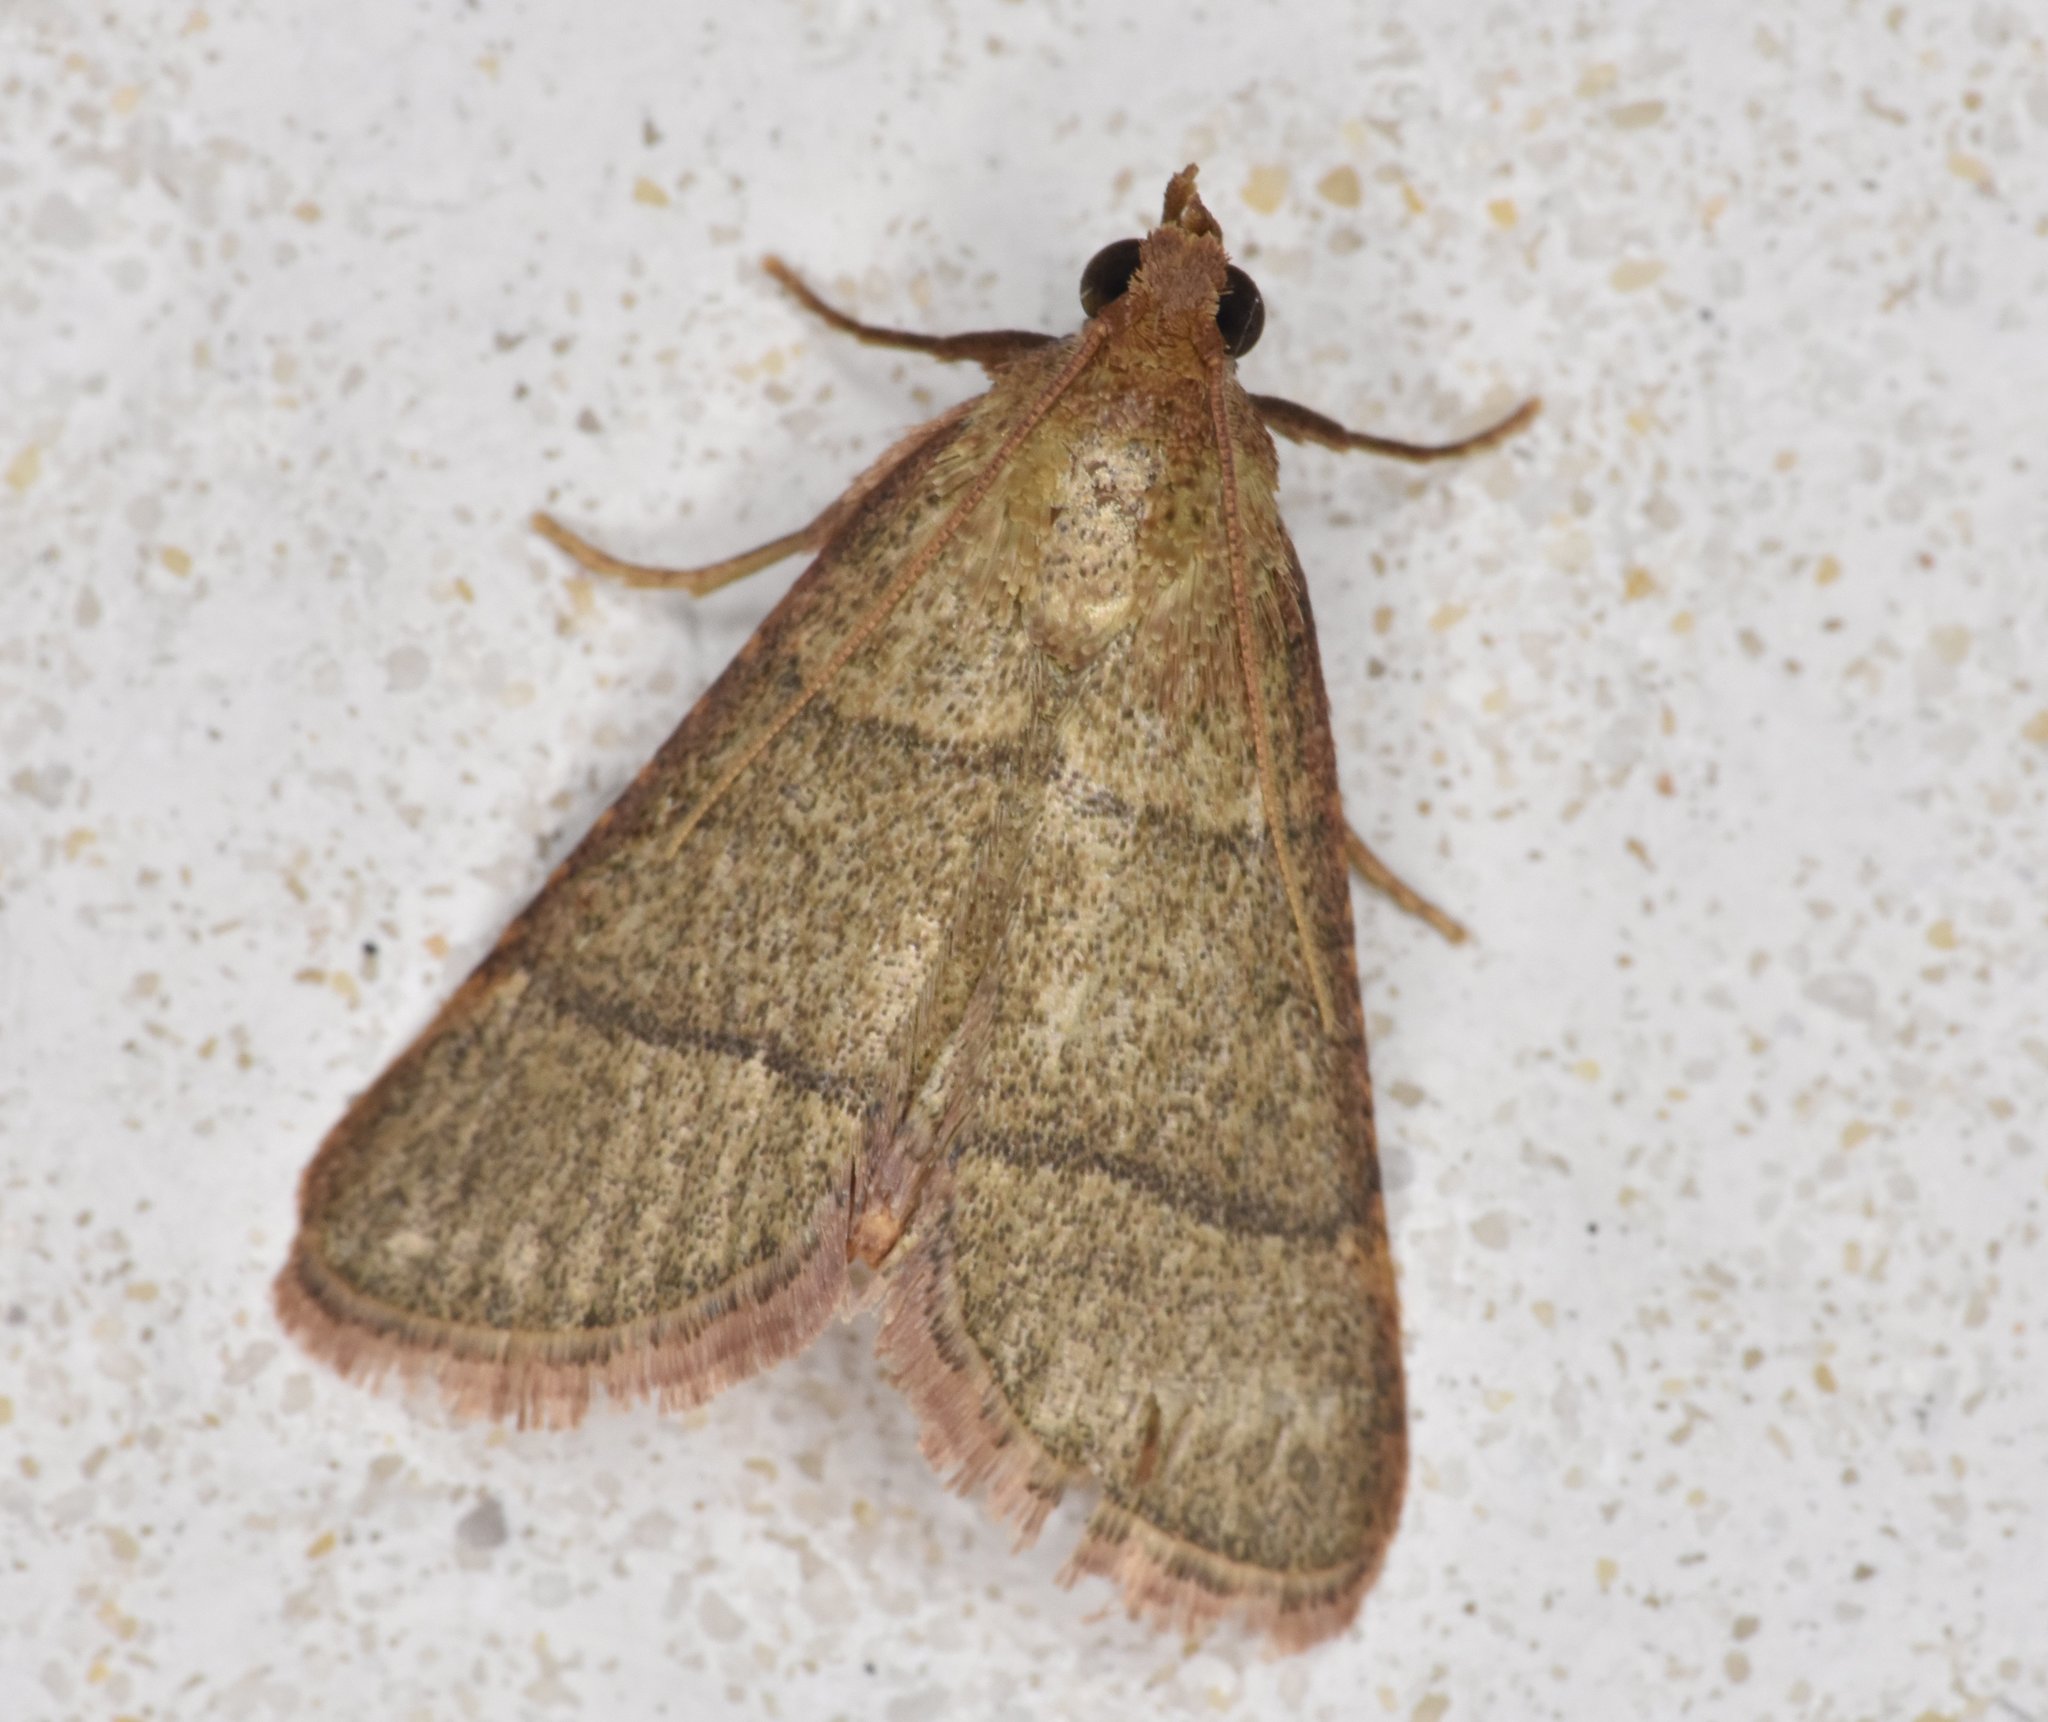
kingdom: Animalia
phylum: Arthropoda
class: Insecta
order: Lepidoptera
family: Pyralidae
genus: Hypsopygia
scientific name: Hypsopygia nostralis
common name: Southern hayworm moth
